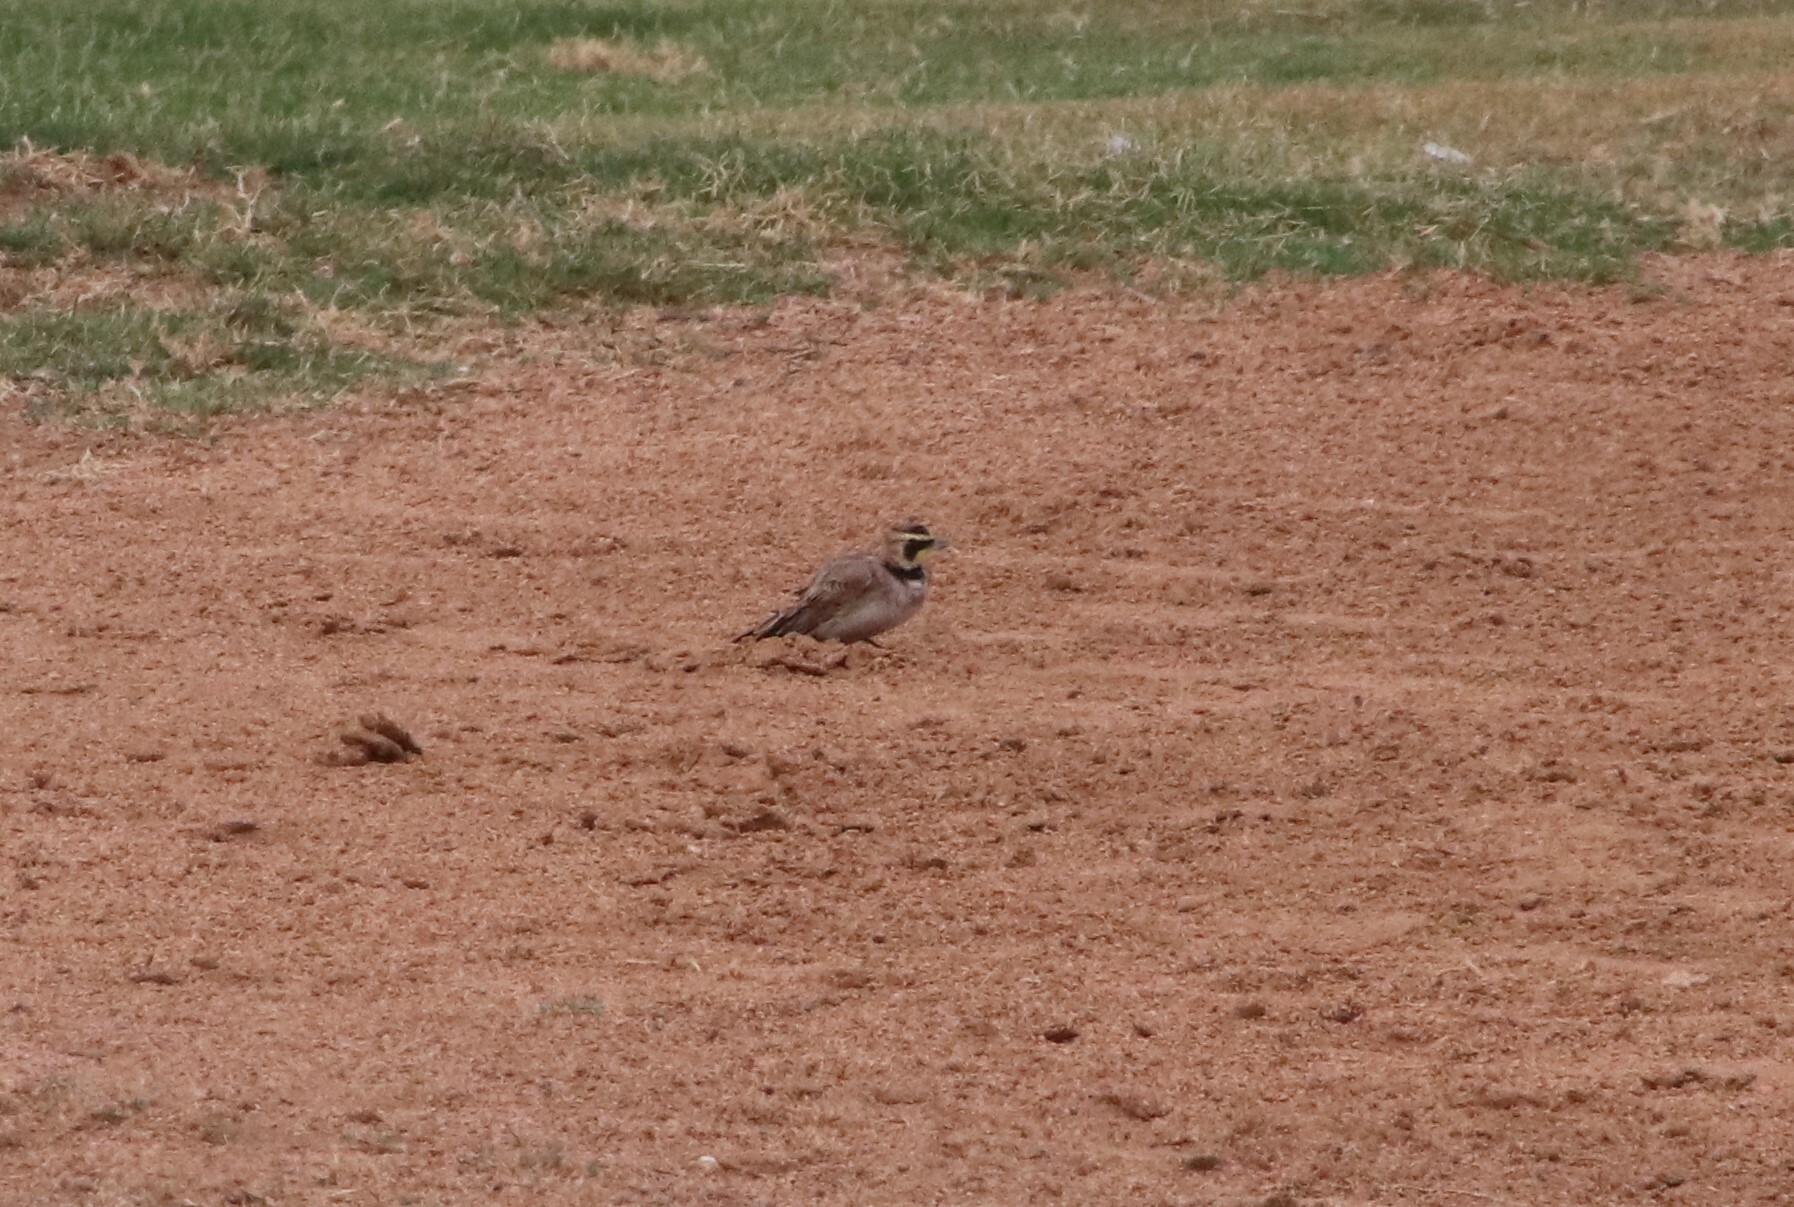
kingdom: Animalia
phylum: Chordata
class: Aves
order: Passeriformes
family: Alaudidae
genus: Eremophila
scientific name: Eremophila alpestris
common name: Horned lark
